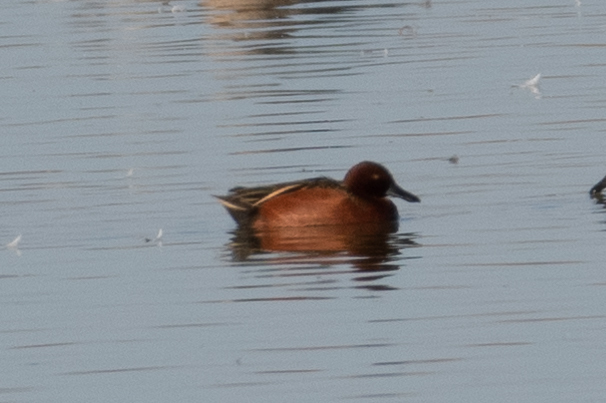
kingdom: Animalia
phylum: Chordata
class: Aves
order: Anseriformes
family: Anatidae
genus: Spatula
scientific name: Spatula cyanoptera
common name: Cinnamon teal
